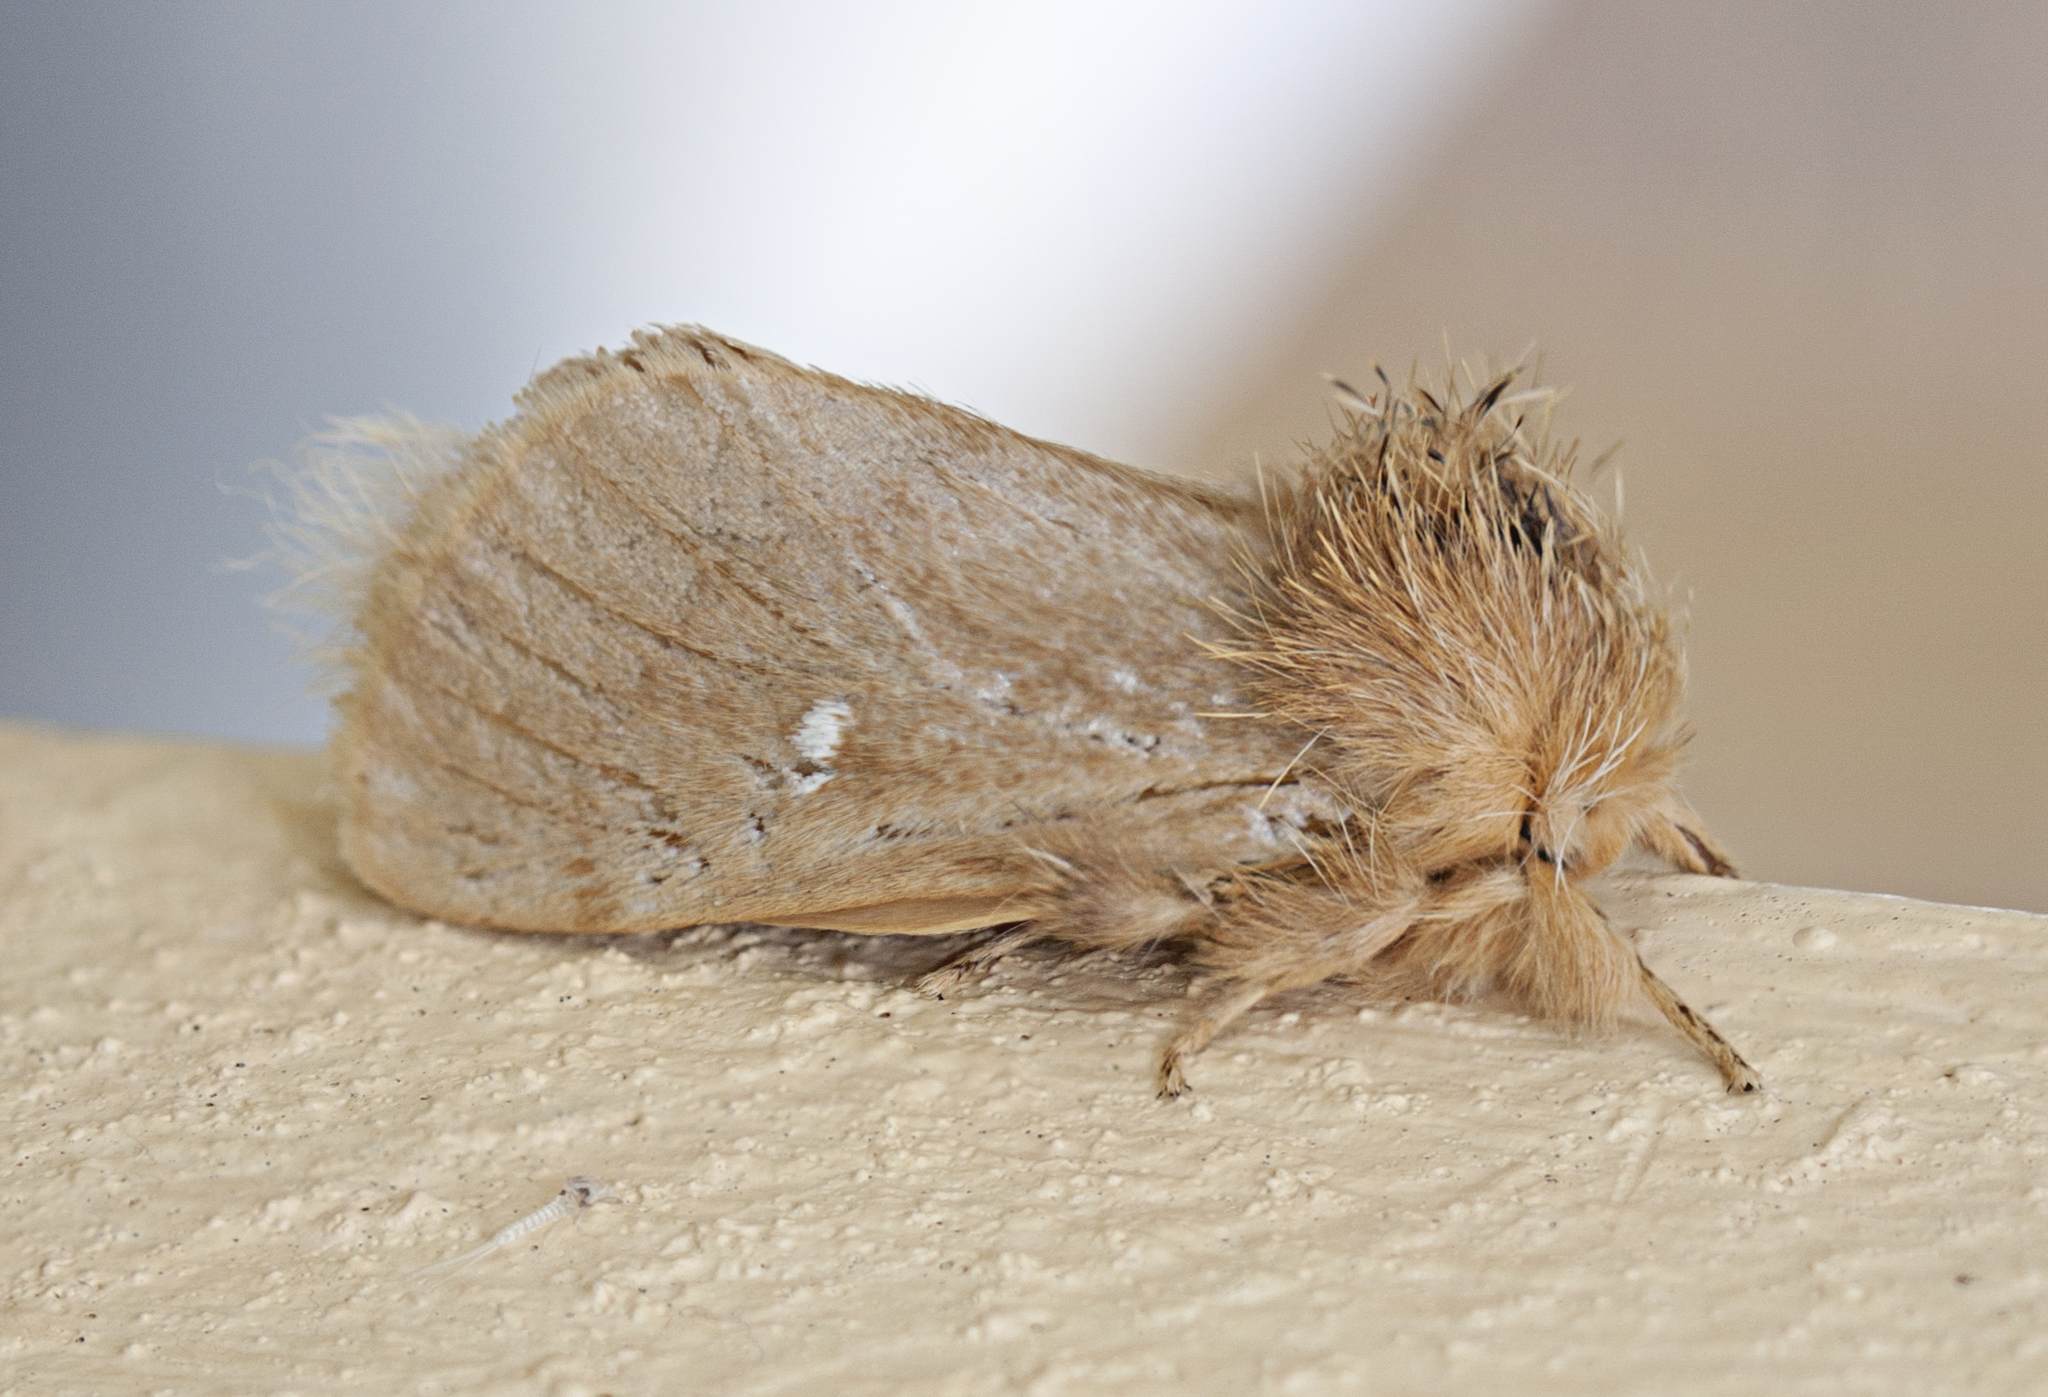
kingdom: Animalia
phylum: Arthropoda
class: Insecta
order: Lepidoptera
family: Notodontidae
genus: Ochrogaster
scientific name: Ochrogaster lunifer
